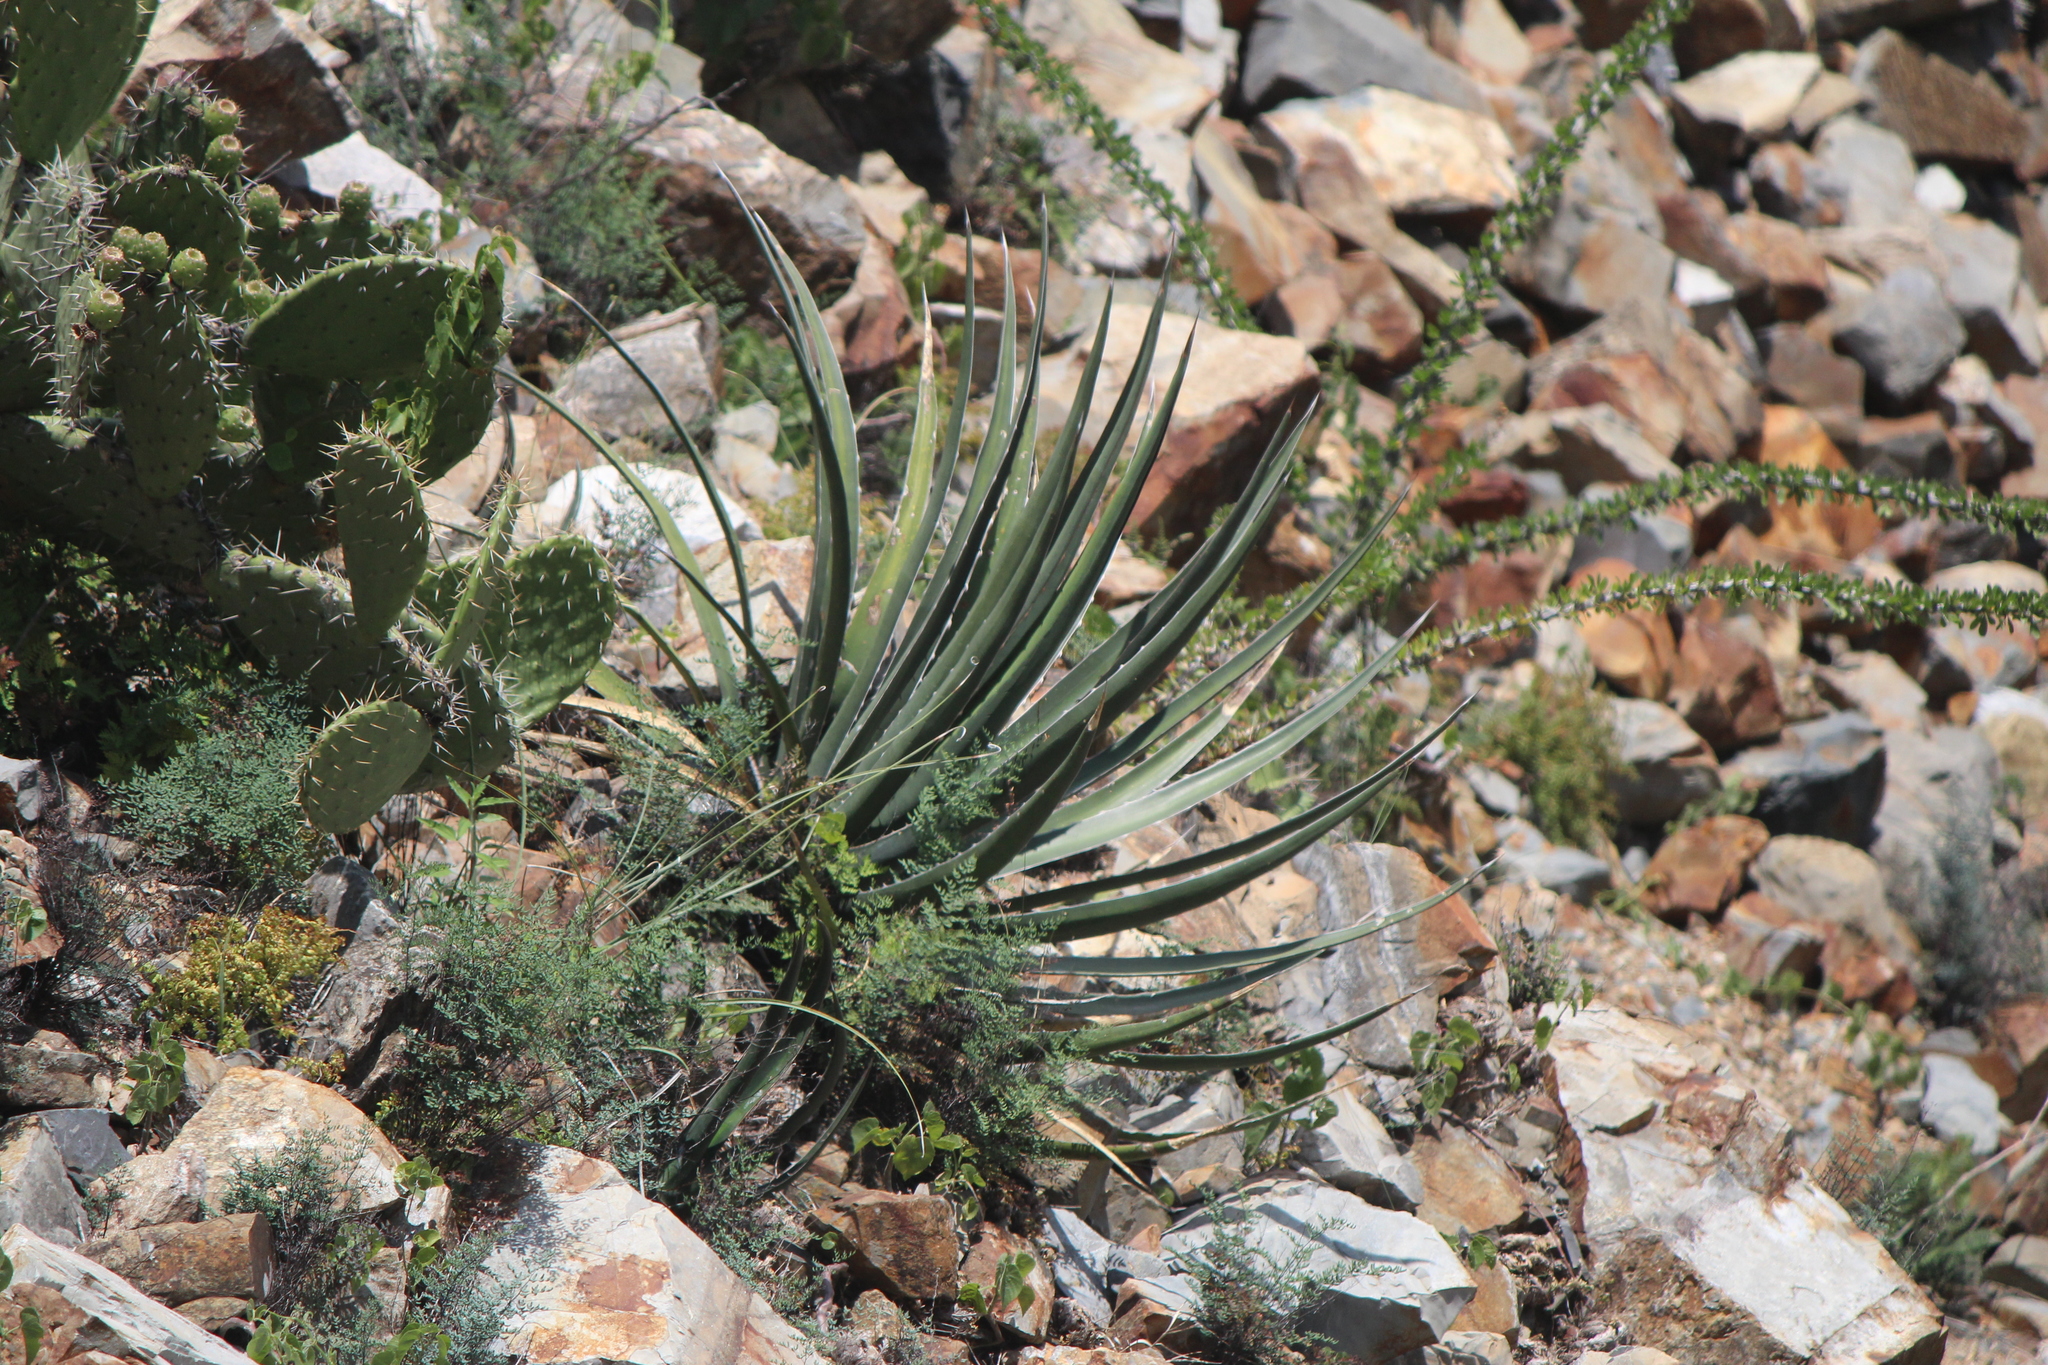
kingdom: Plantae
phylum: Tracheophyta
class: Liliopsida
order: Asparagales
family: Asparagaceae
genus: Agave
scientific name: Agave difformis
